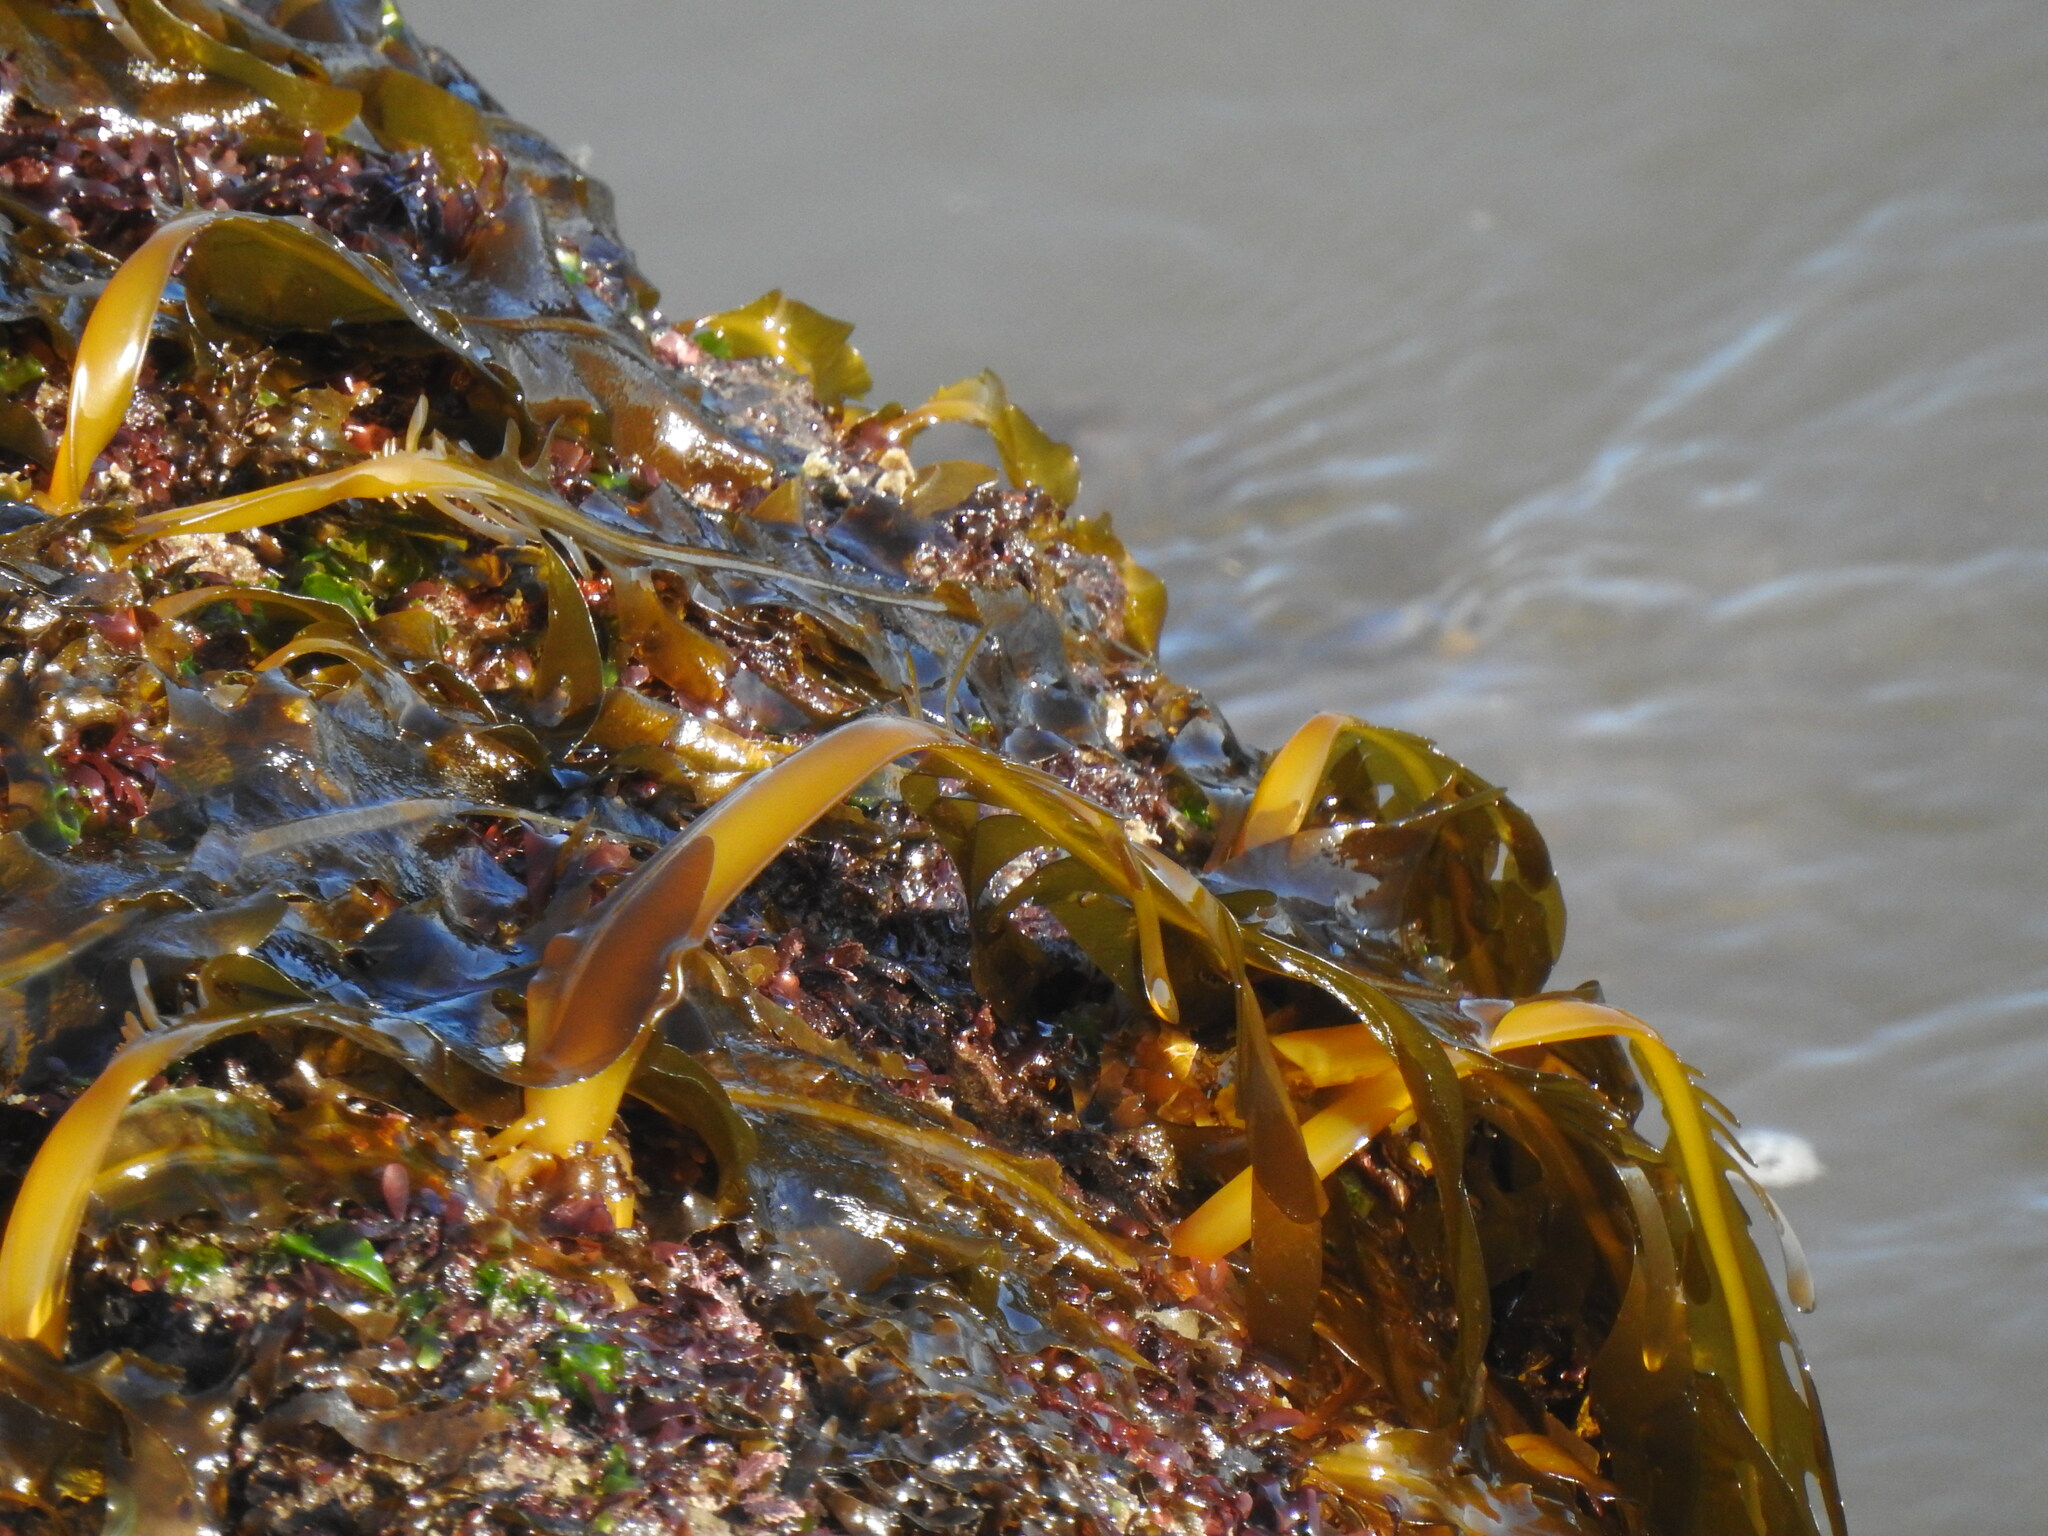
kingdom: Chromista
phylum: Ochrophyta
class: Phaeophyceae
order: Laminariales
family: Alariaceae
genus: Undaria
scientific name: Undaria pinnatifida
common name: Asian kelp
